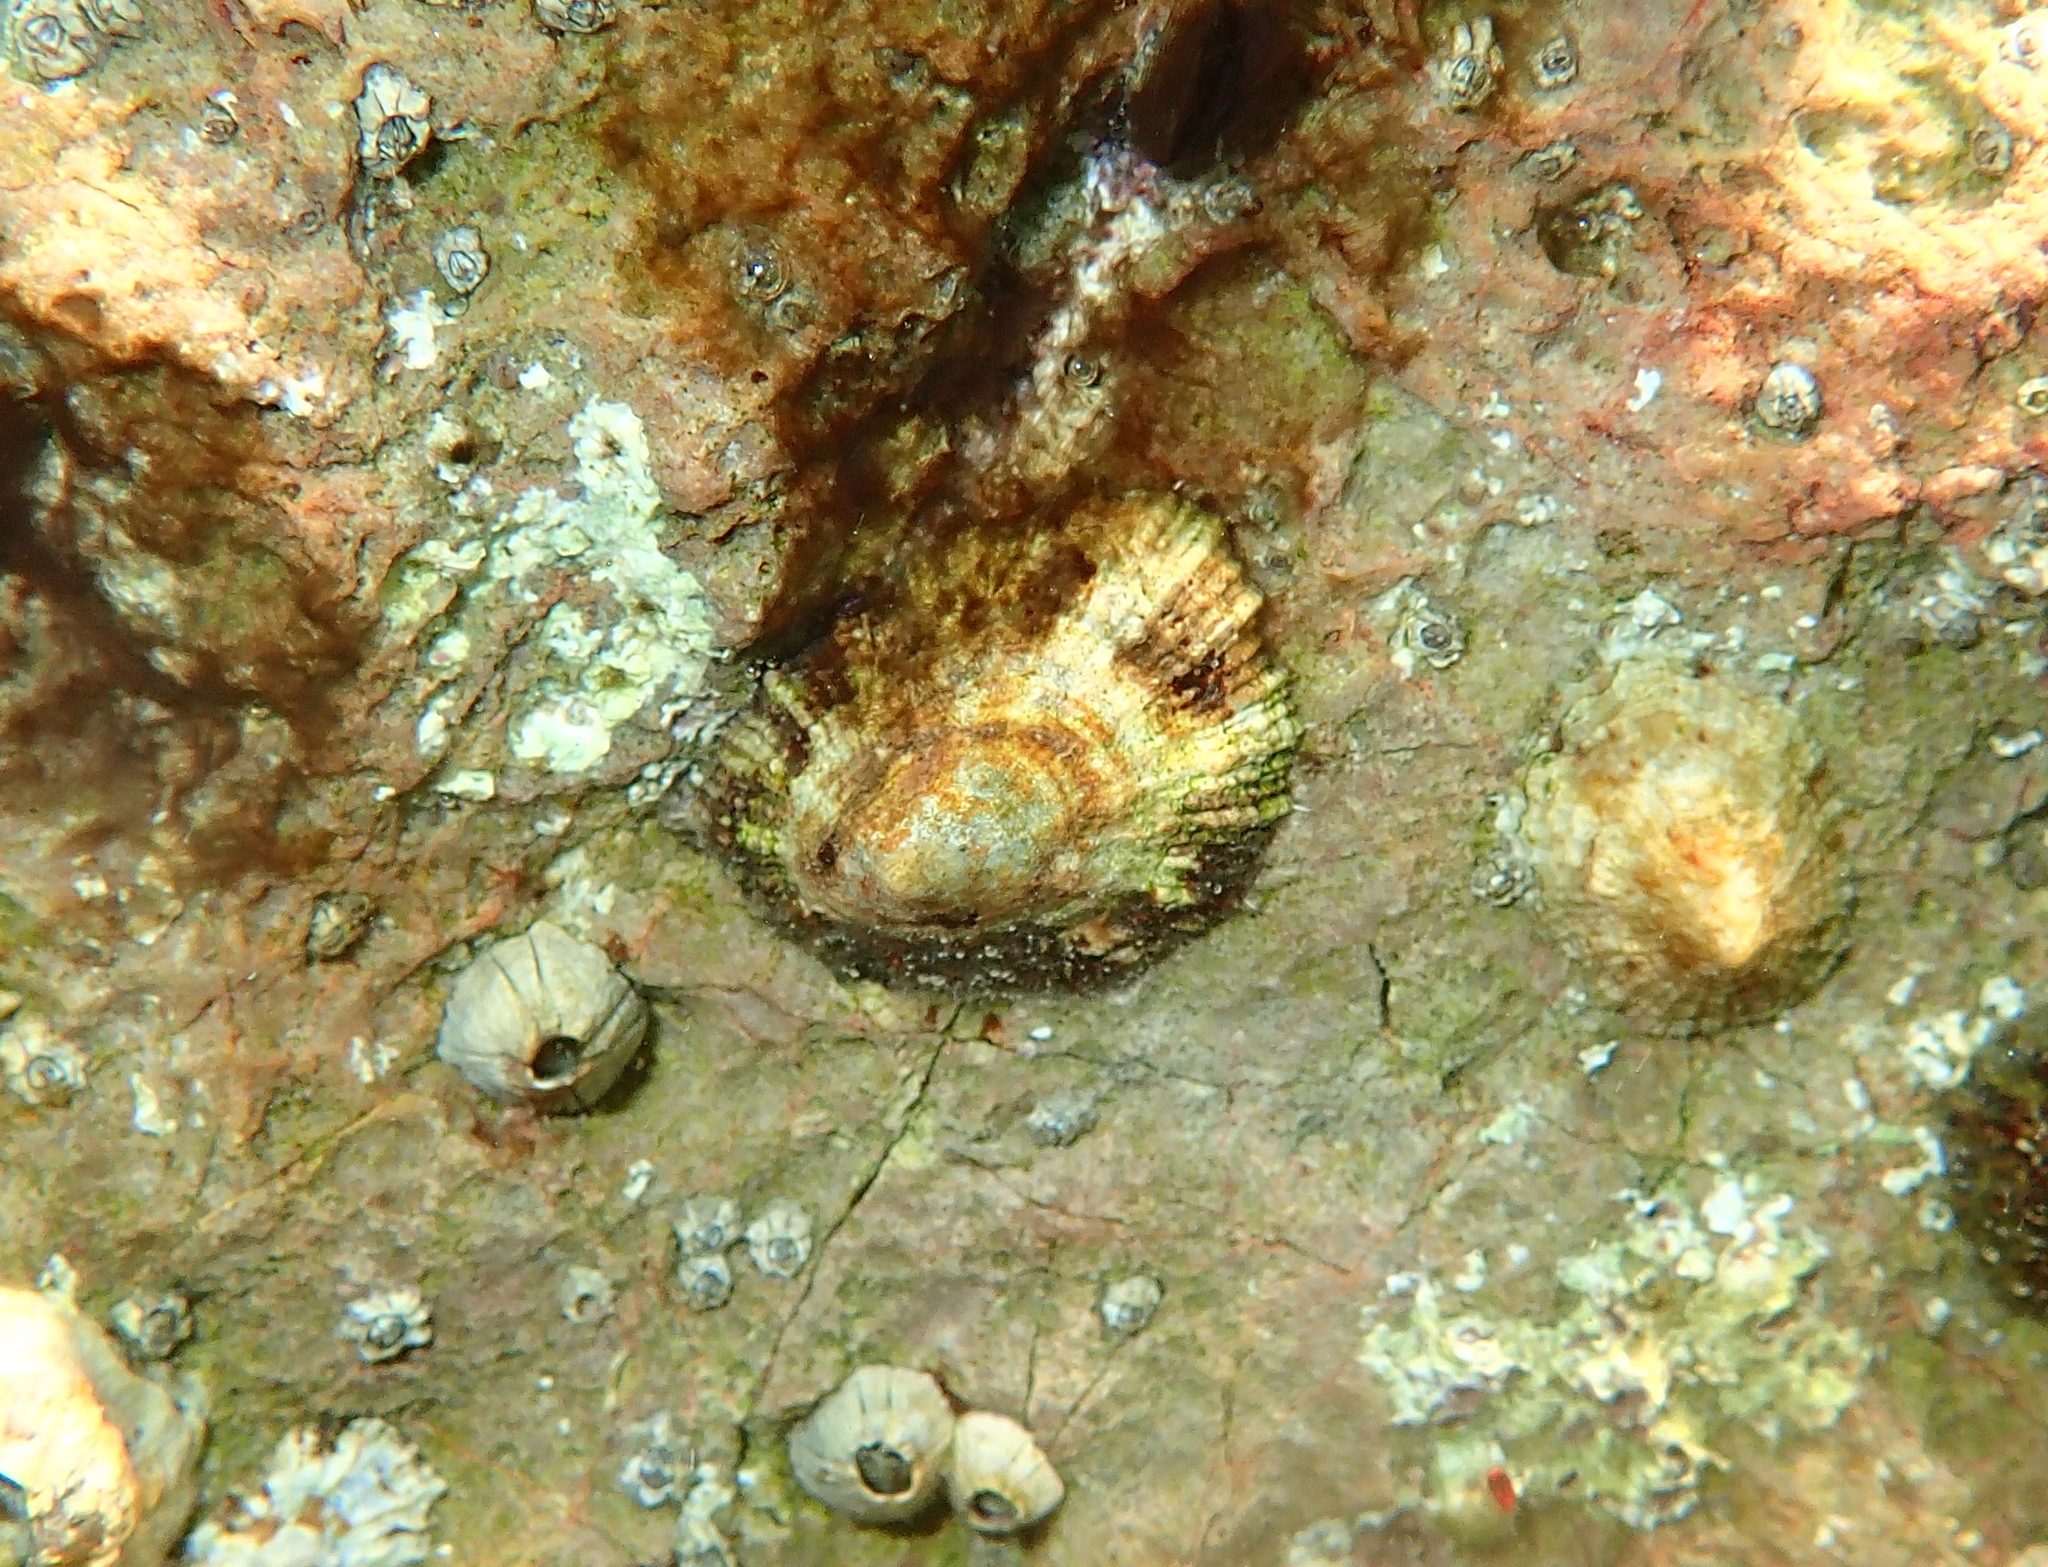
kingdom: Animalia
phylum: Mollusca
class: Gastropoda
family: Patellidae
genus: Patella
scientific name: Patella caerulea
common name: Mediterranean limpet
